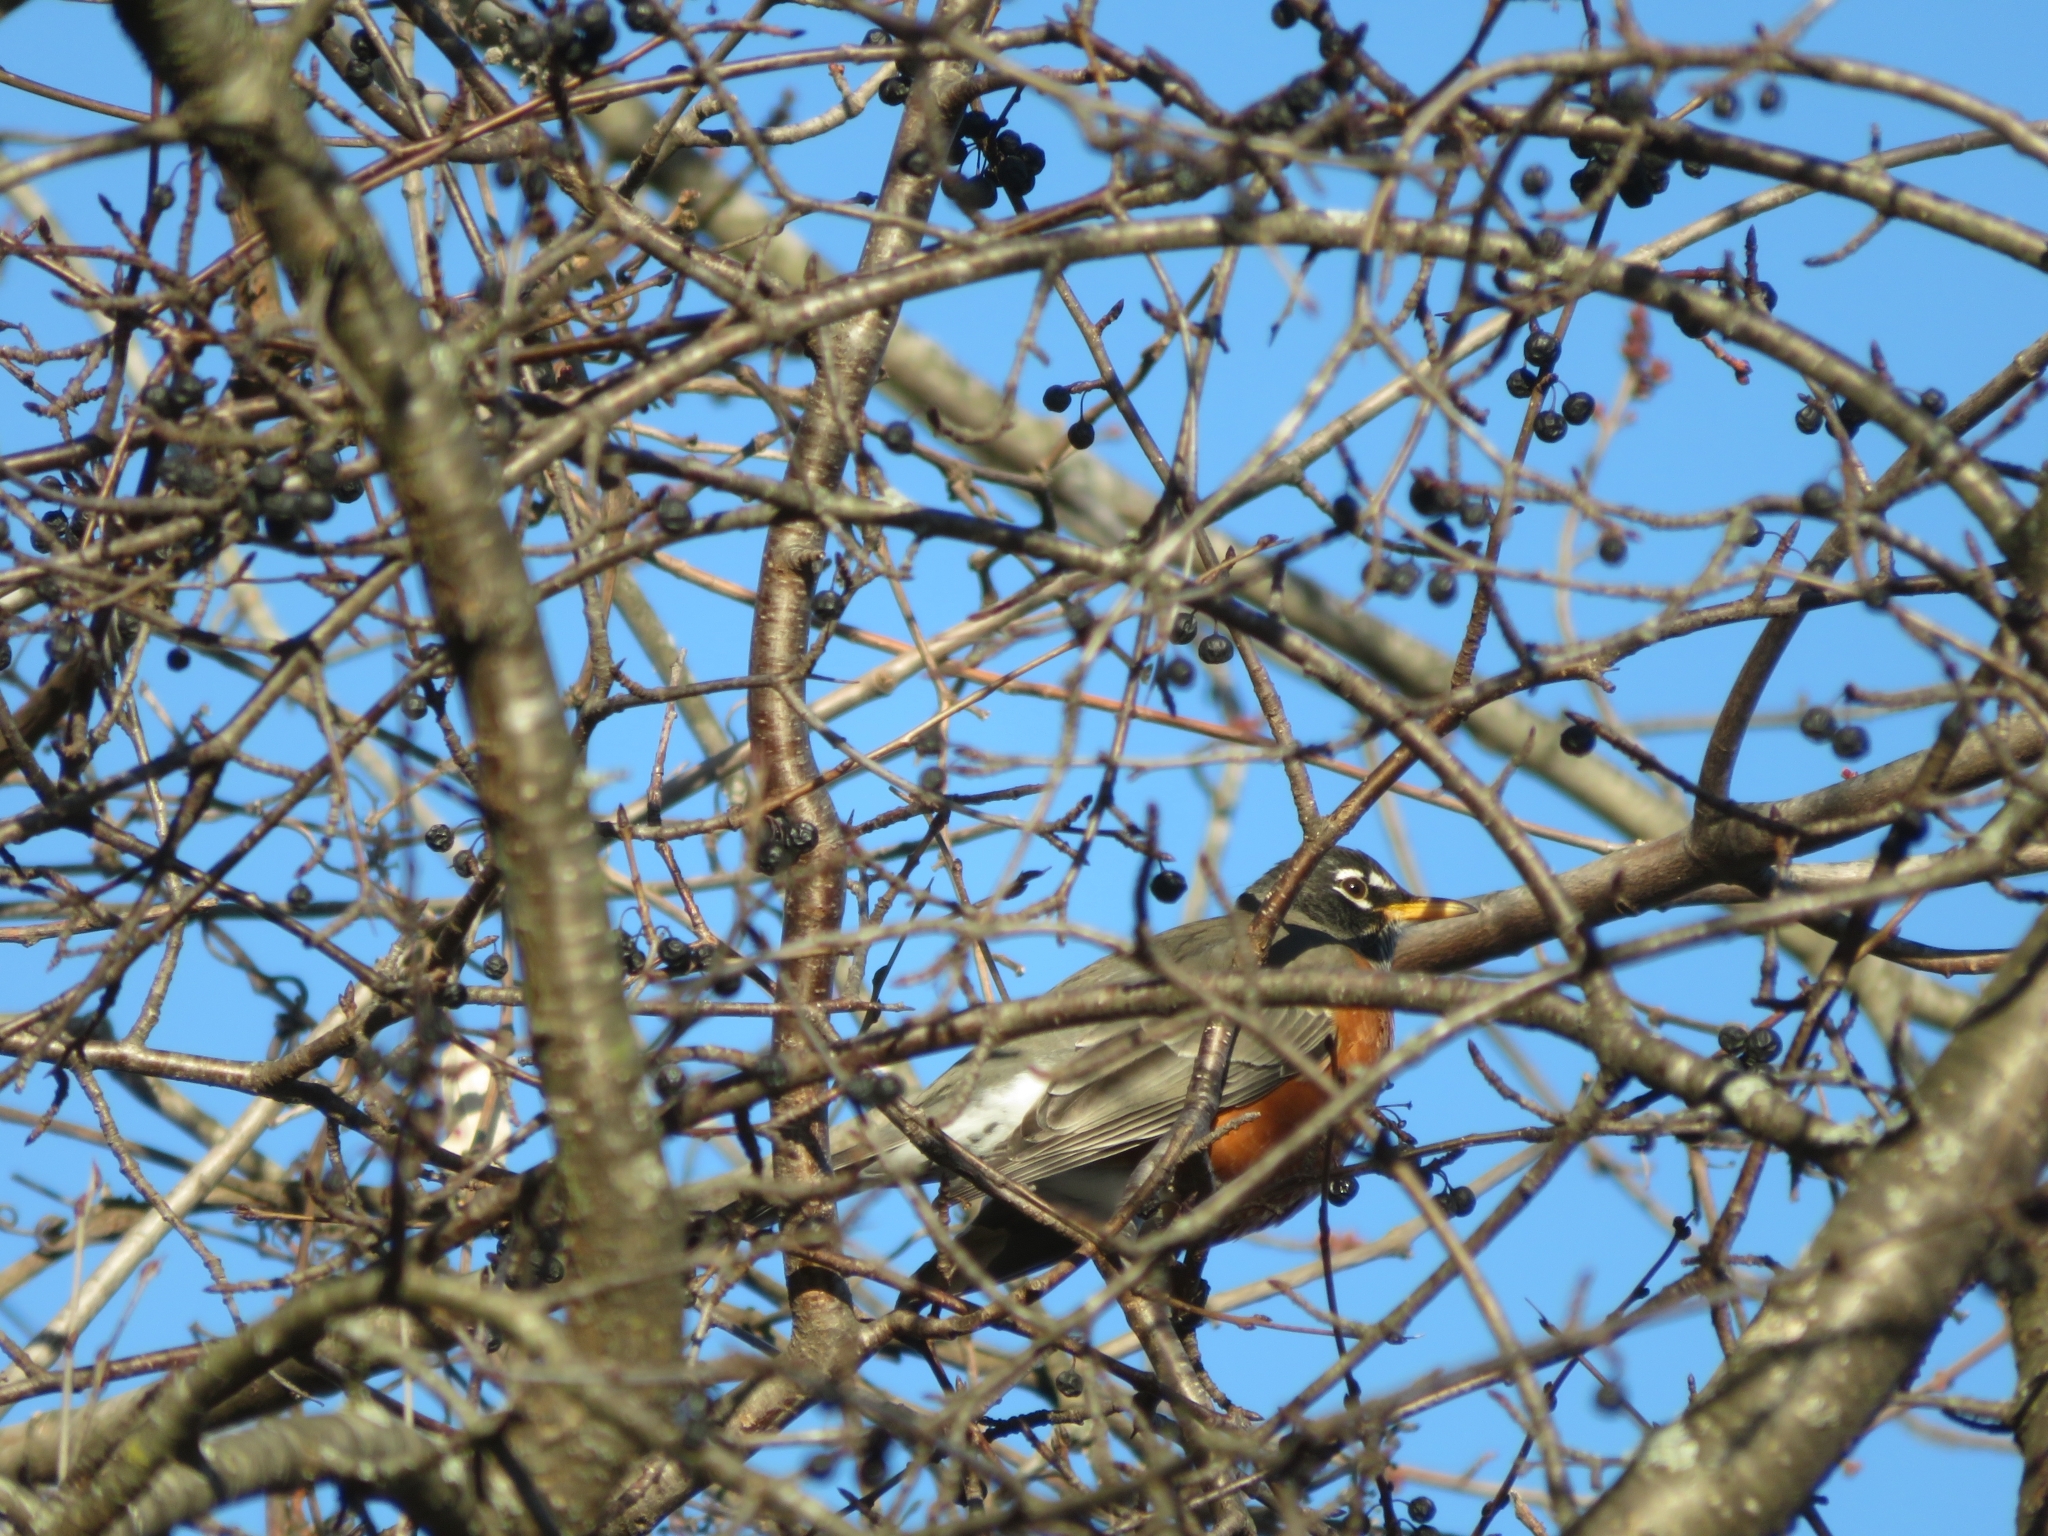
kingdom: Animalia
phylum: Chordata
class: Aves
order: Passeriformes
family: Turdidae
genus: Turdus
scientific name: Turdus migratorius
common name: American robin
